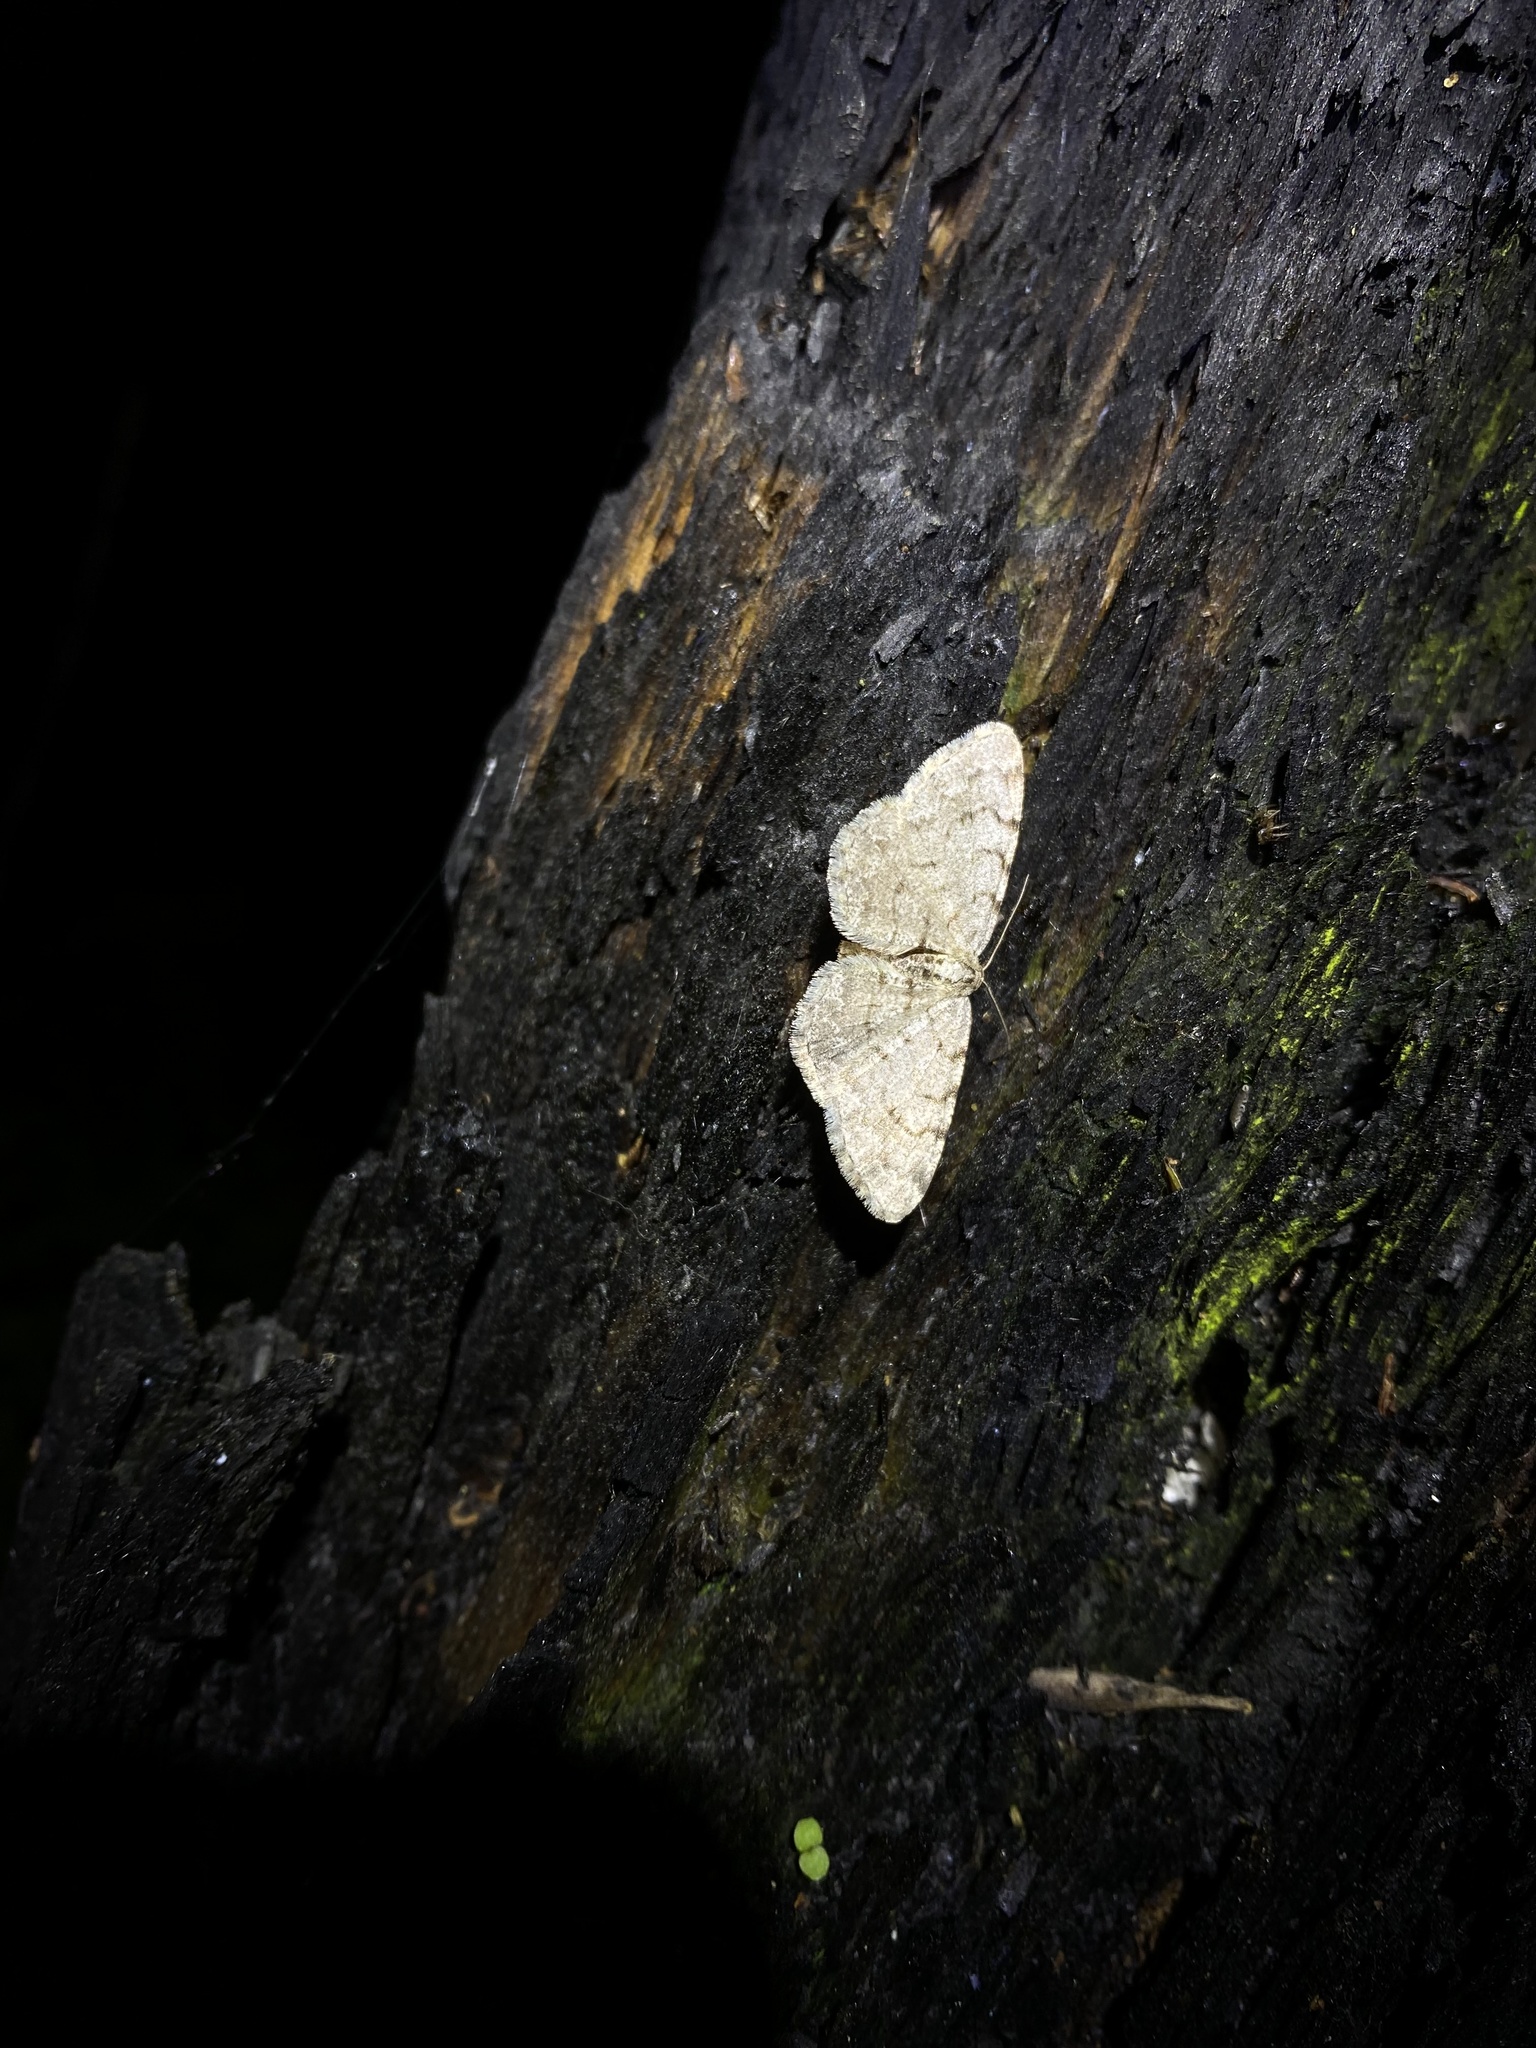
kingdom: Animalia
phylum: Arthropoda
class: Insecta
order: Lepidoptera
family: Geometridae
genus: Aethalura
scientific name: Aethalura punctulata
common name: Grey birch
